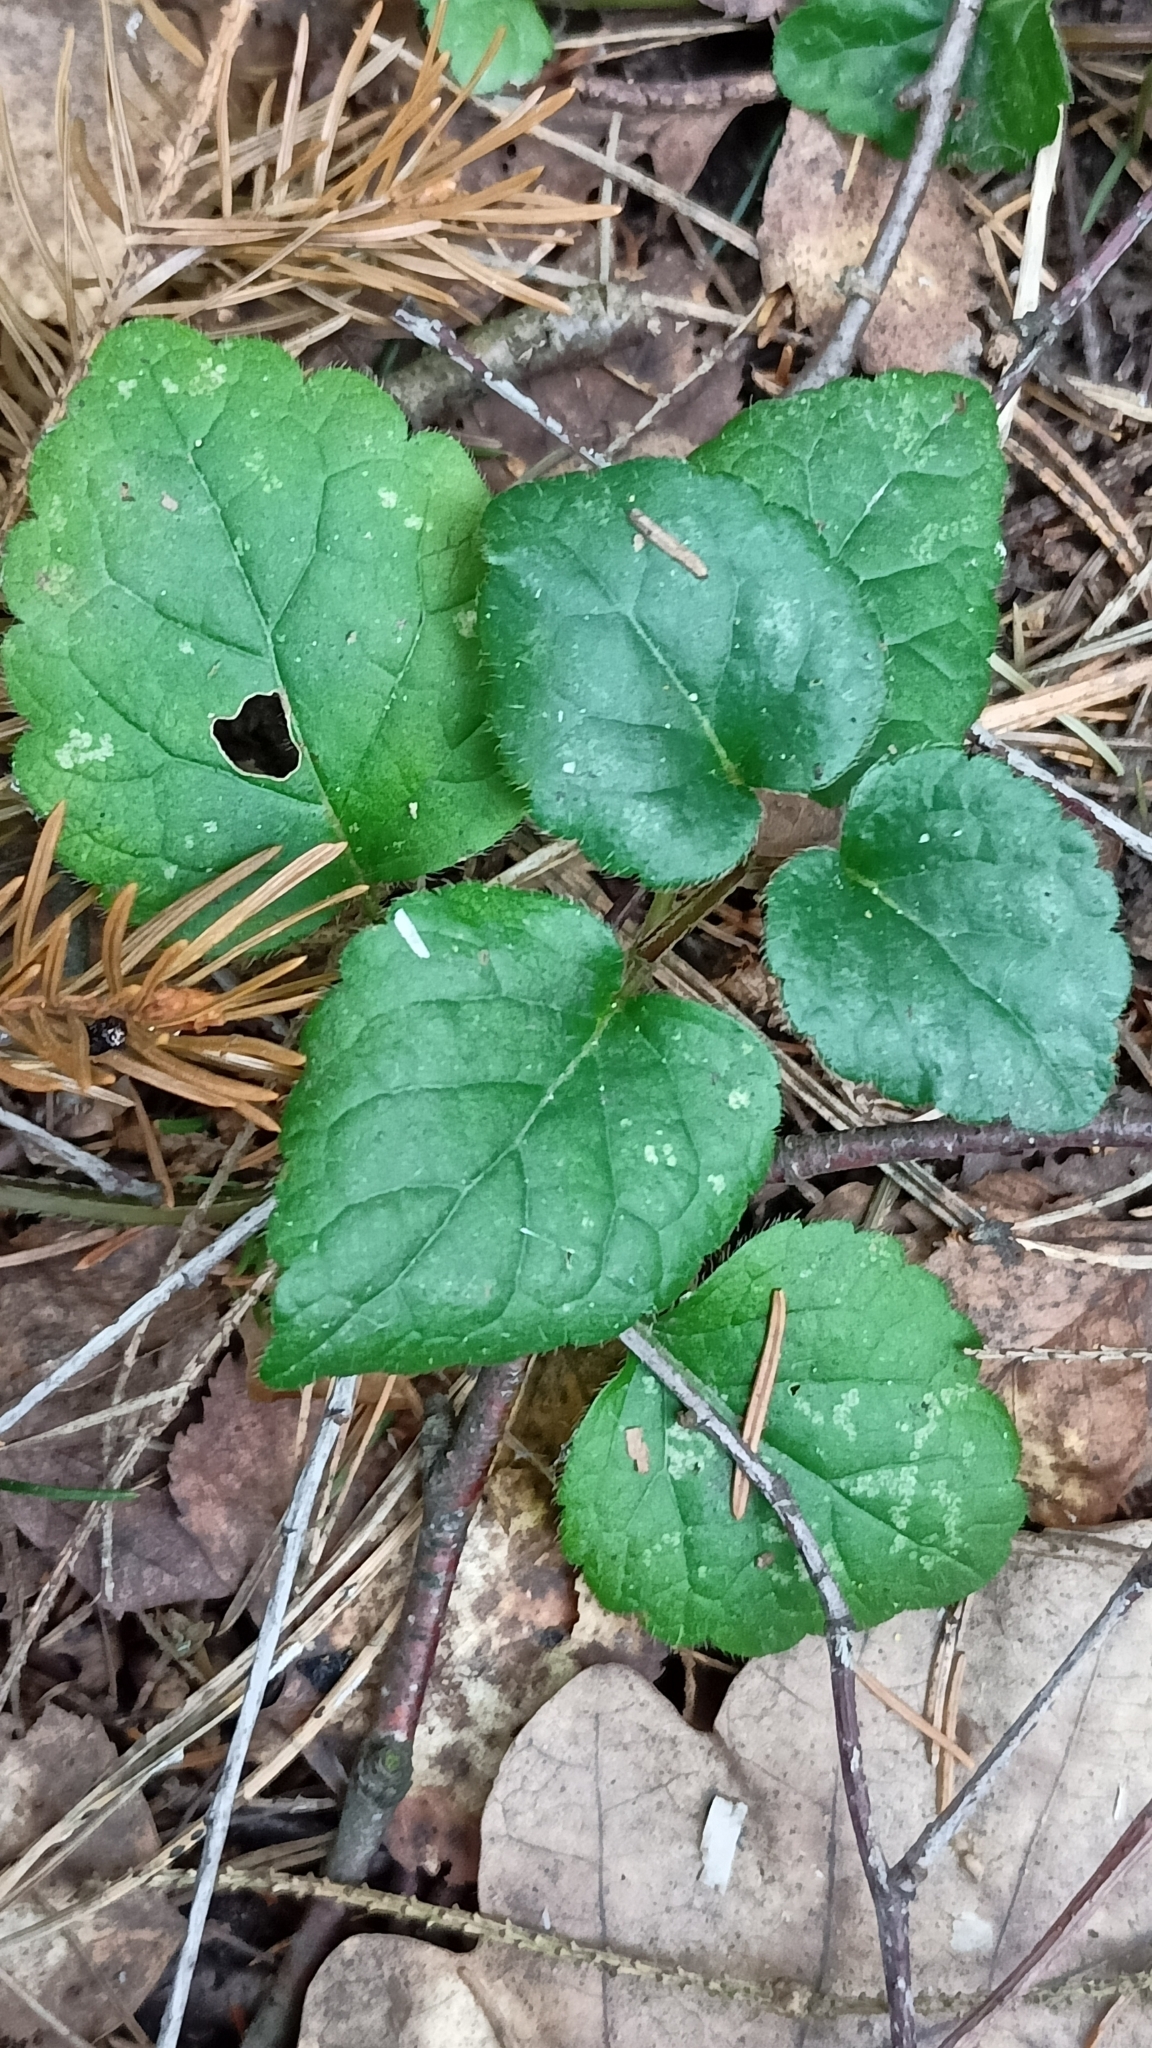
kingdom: Plantae
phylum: Tracheophyta
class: Magnoliopsida
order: Lamiales
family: Lamiaceae
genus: Lamium
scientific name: Lamium galeobdolon
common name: Yellow archangel
